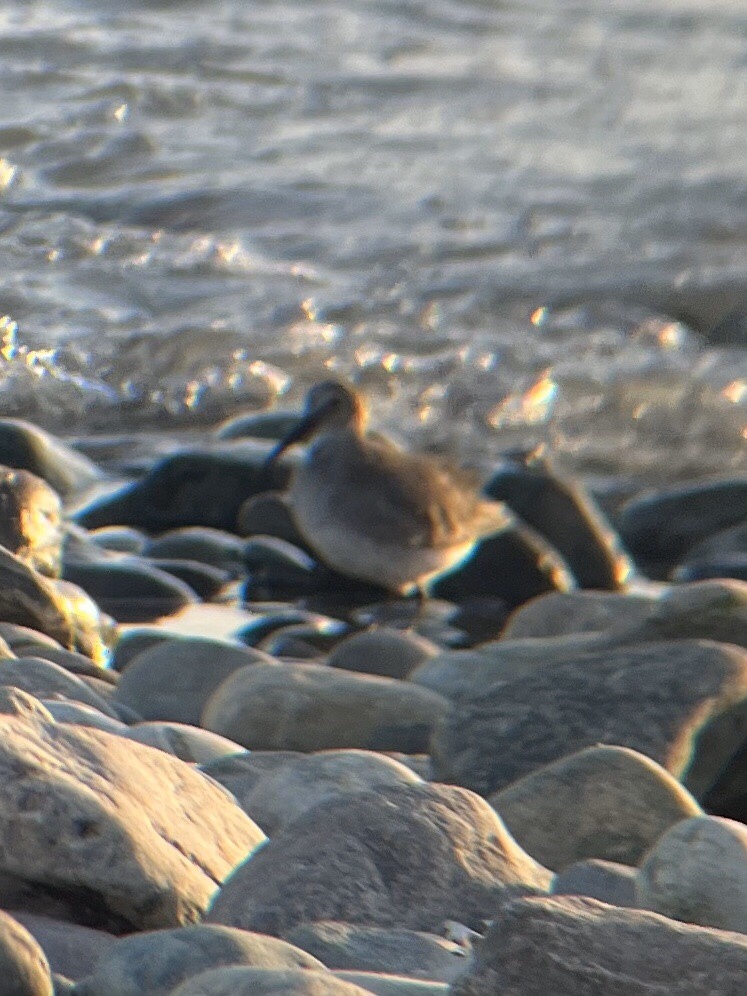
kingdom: Animalia
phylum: Chordata
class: Aves
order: Charadriiformes
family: Scolopacidae
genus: Calidris
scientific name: Calidris alpina
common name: Dunlin
